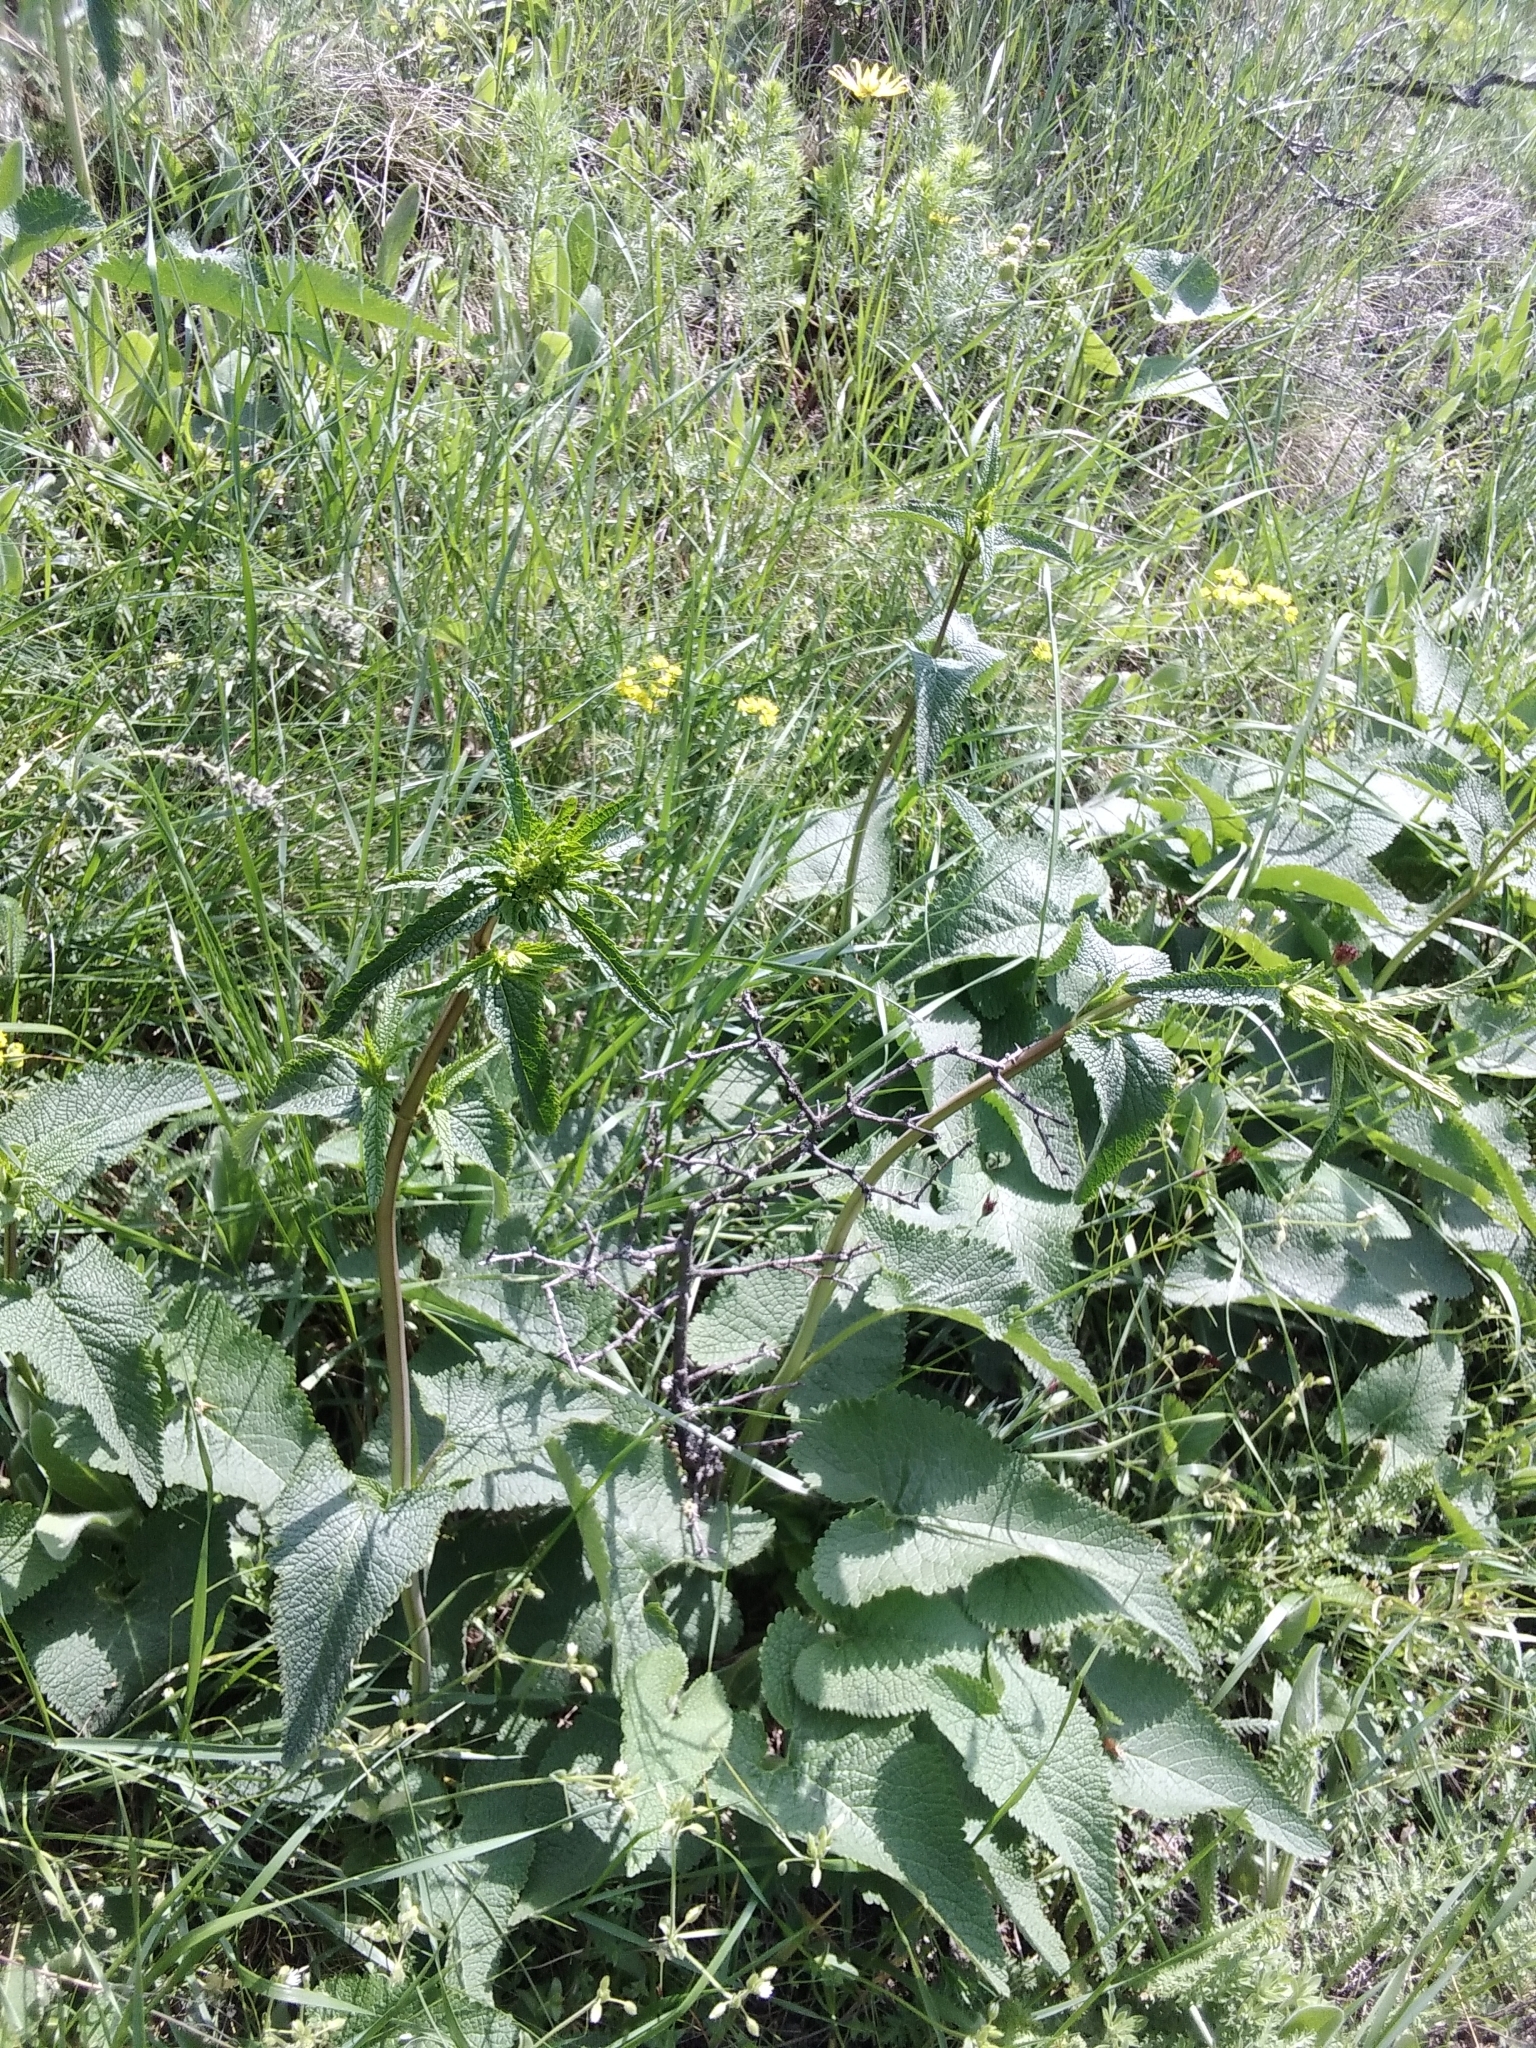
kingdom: Plantae
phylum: Tracheophyta
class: Magnoliopsida
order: Lamiales
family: Lamiaceae
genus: Phlomoides
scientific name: Phlomoides tuberosa
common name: Tuberous jerusalem sage
